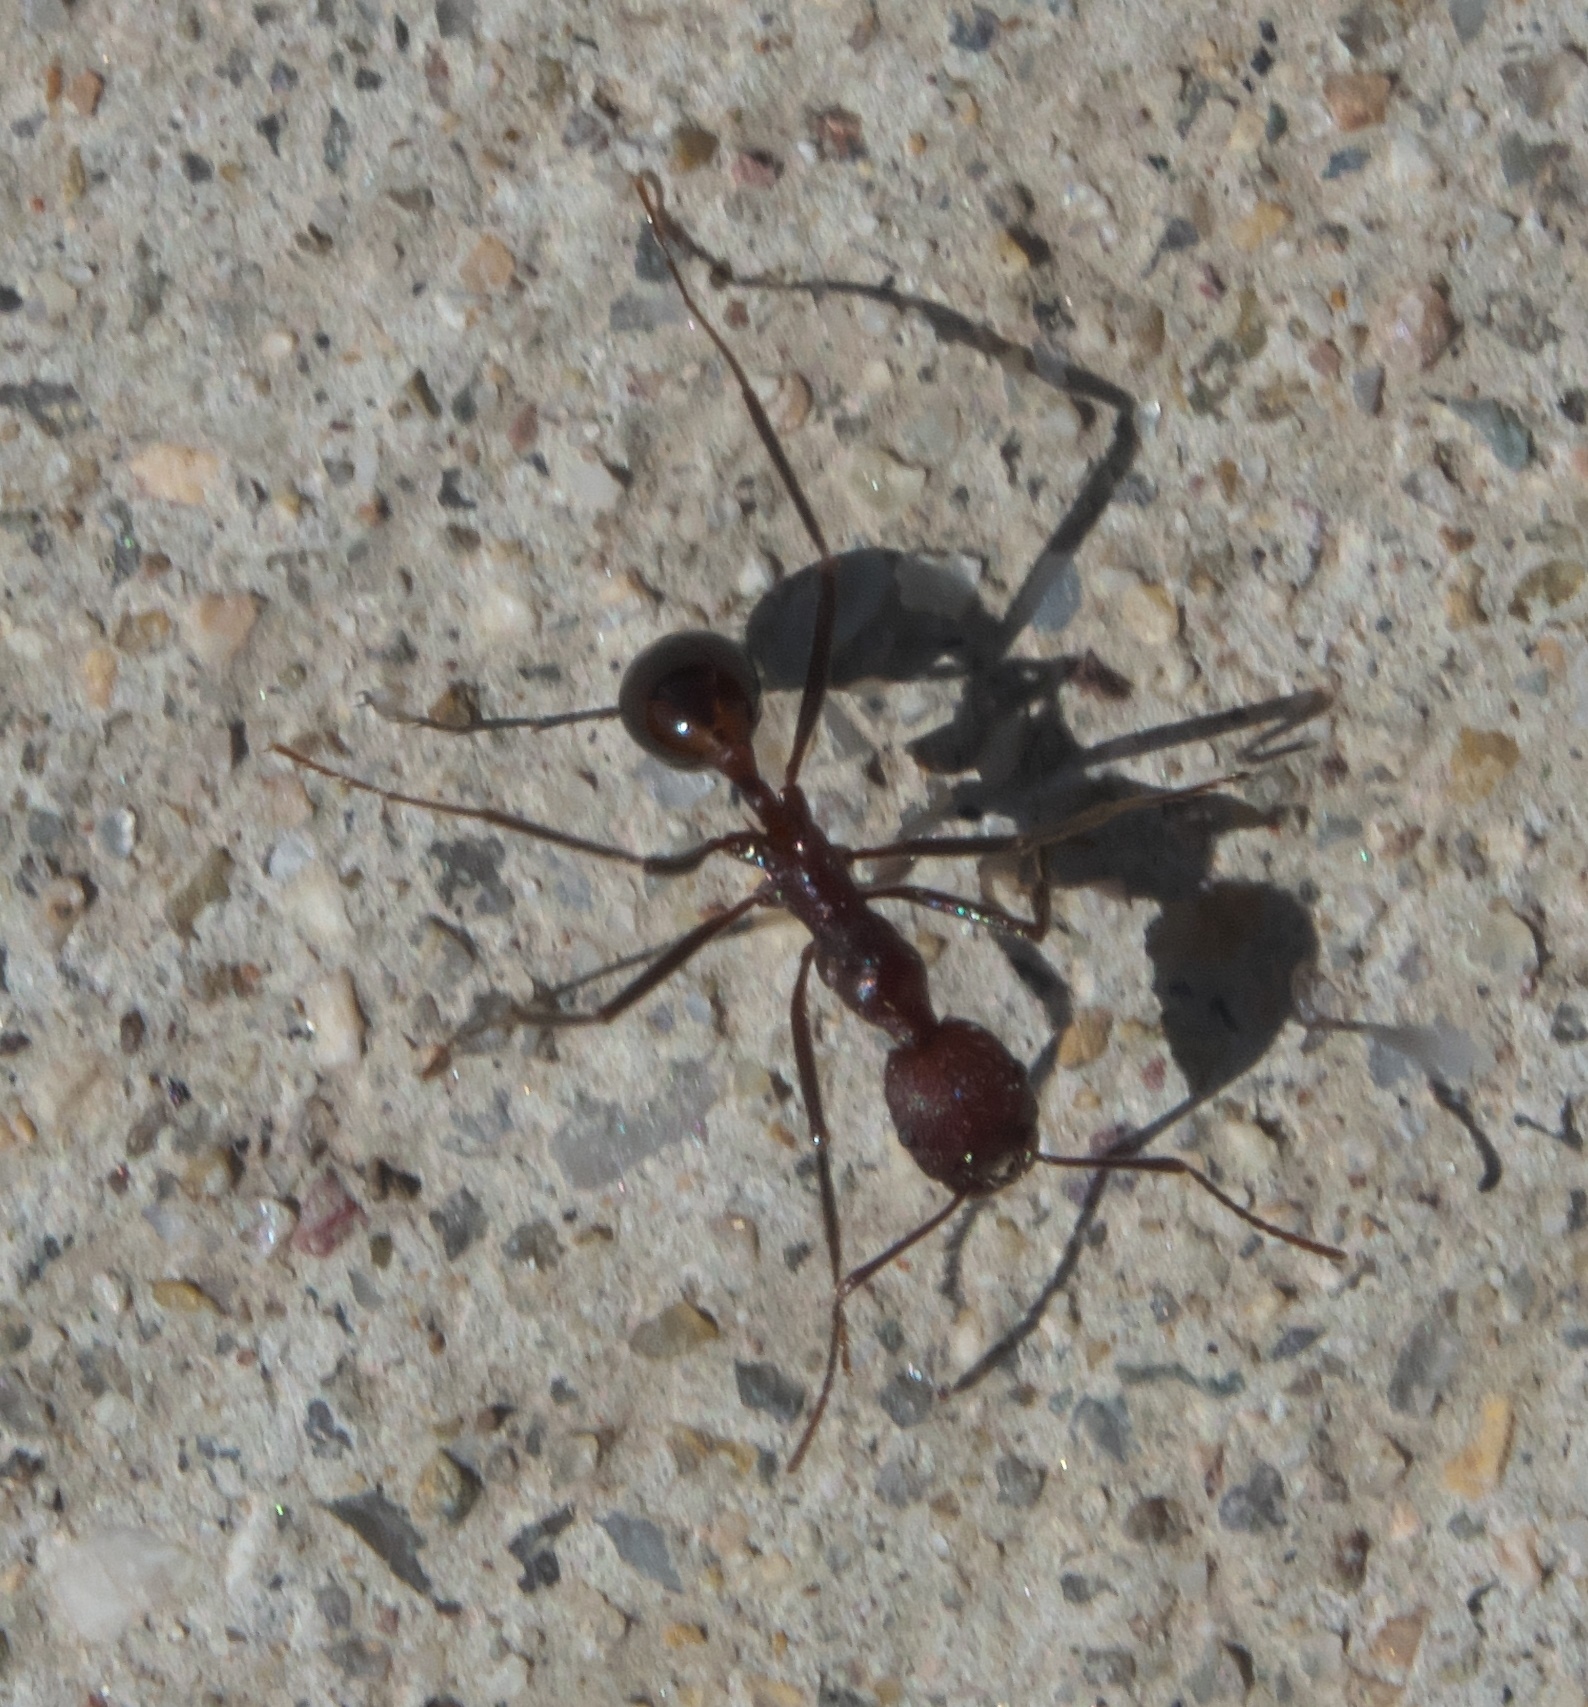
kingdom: Animalia
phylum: Arthropoda
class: Insecta
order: Hymenoptera
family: Formicidae
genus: Novomessor
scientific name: Novomessor albisetosa
